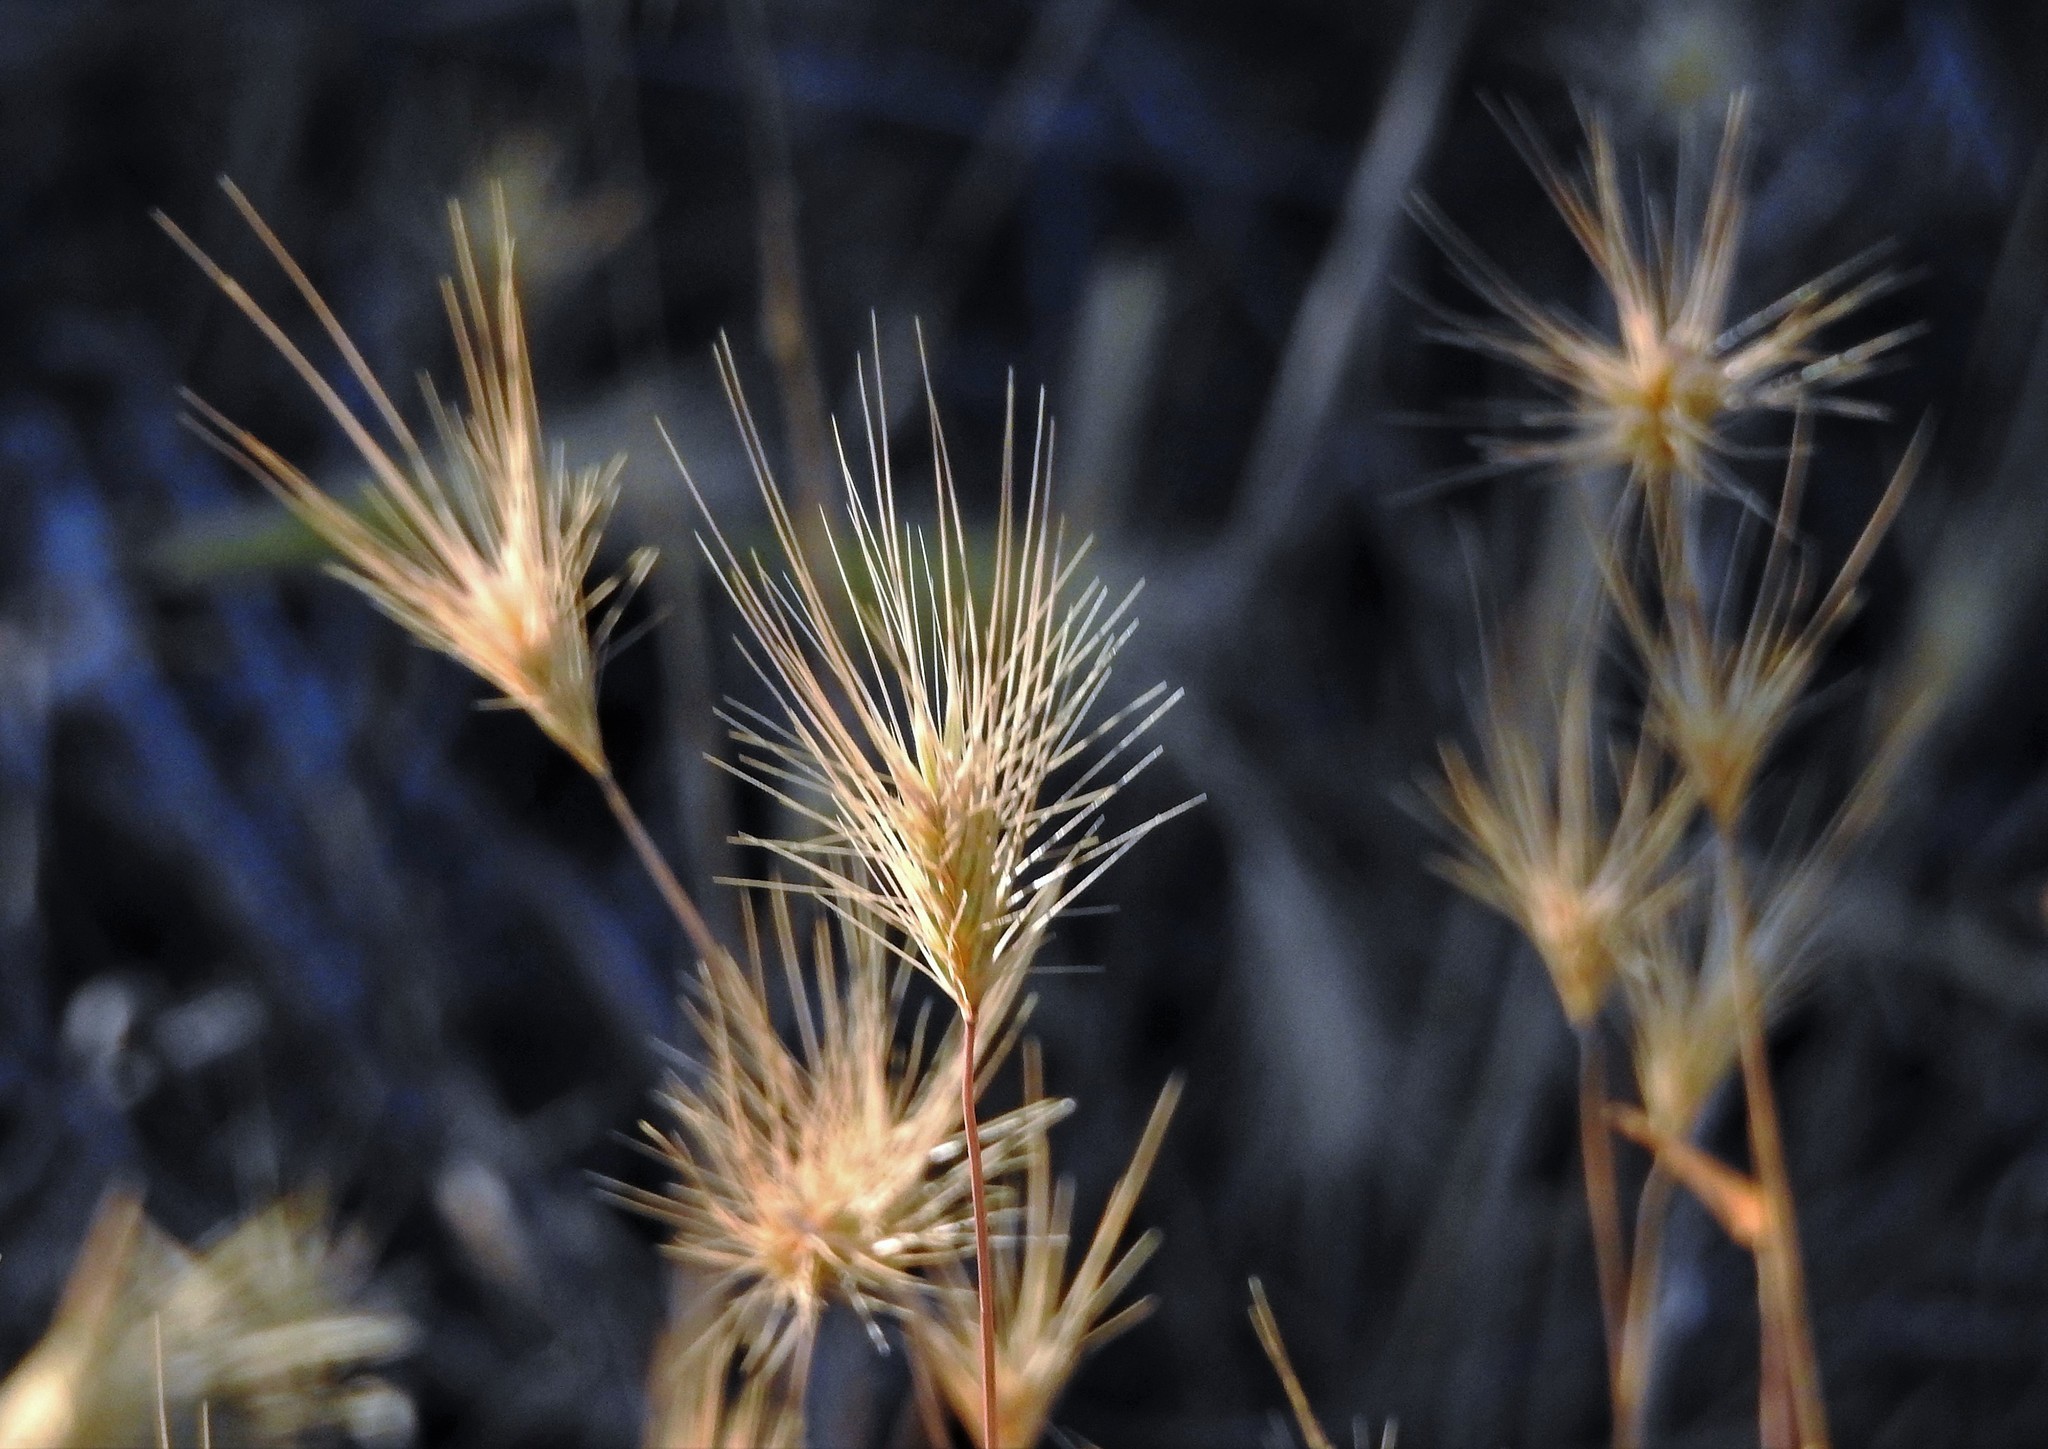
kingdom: Plantae
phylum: Tracheophyta
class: Liliopsida
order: Poales
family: Poaceae
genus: Hordeum
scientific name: Hordeum murinum
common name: Wall barley
